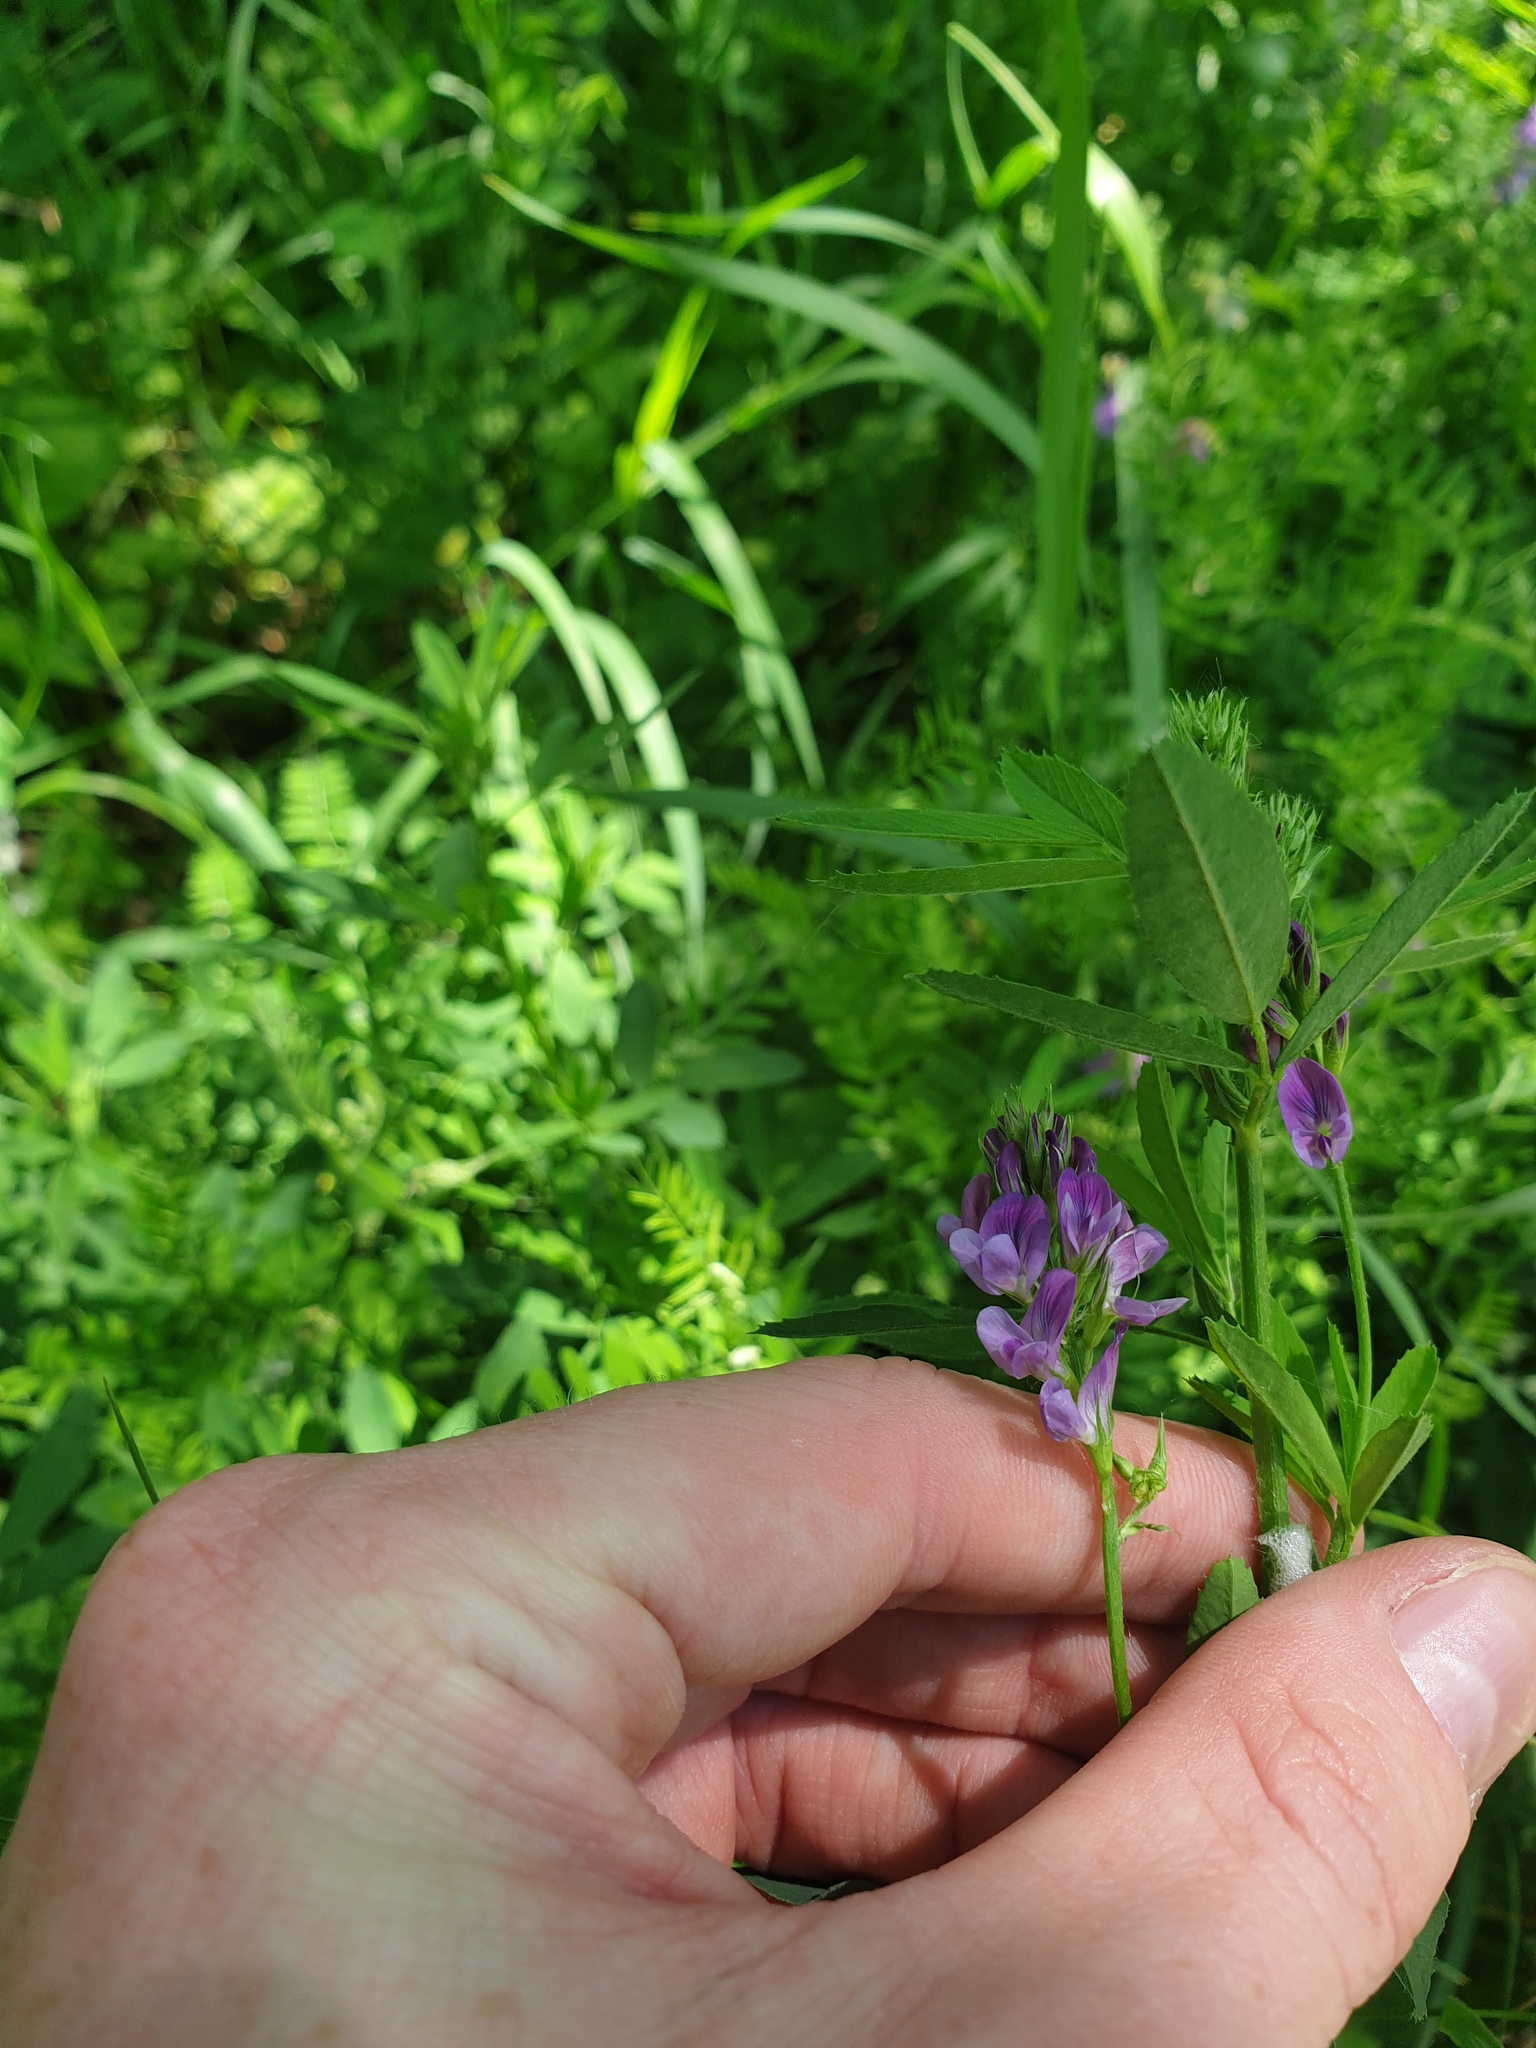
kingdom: Plantae
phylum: Tracheophyta
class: Magnoliopsida
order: Fabales
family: Fabaceae
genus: Medicago
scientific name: Medicago sativa
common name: Alfalfa
